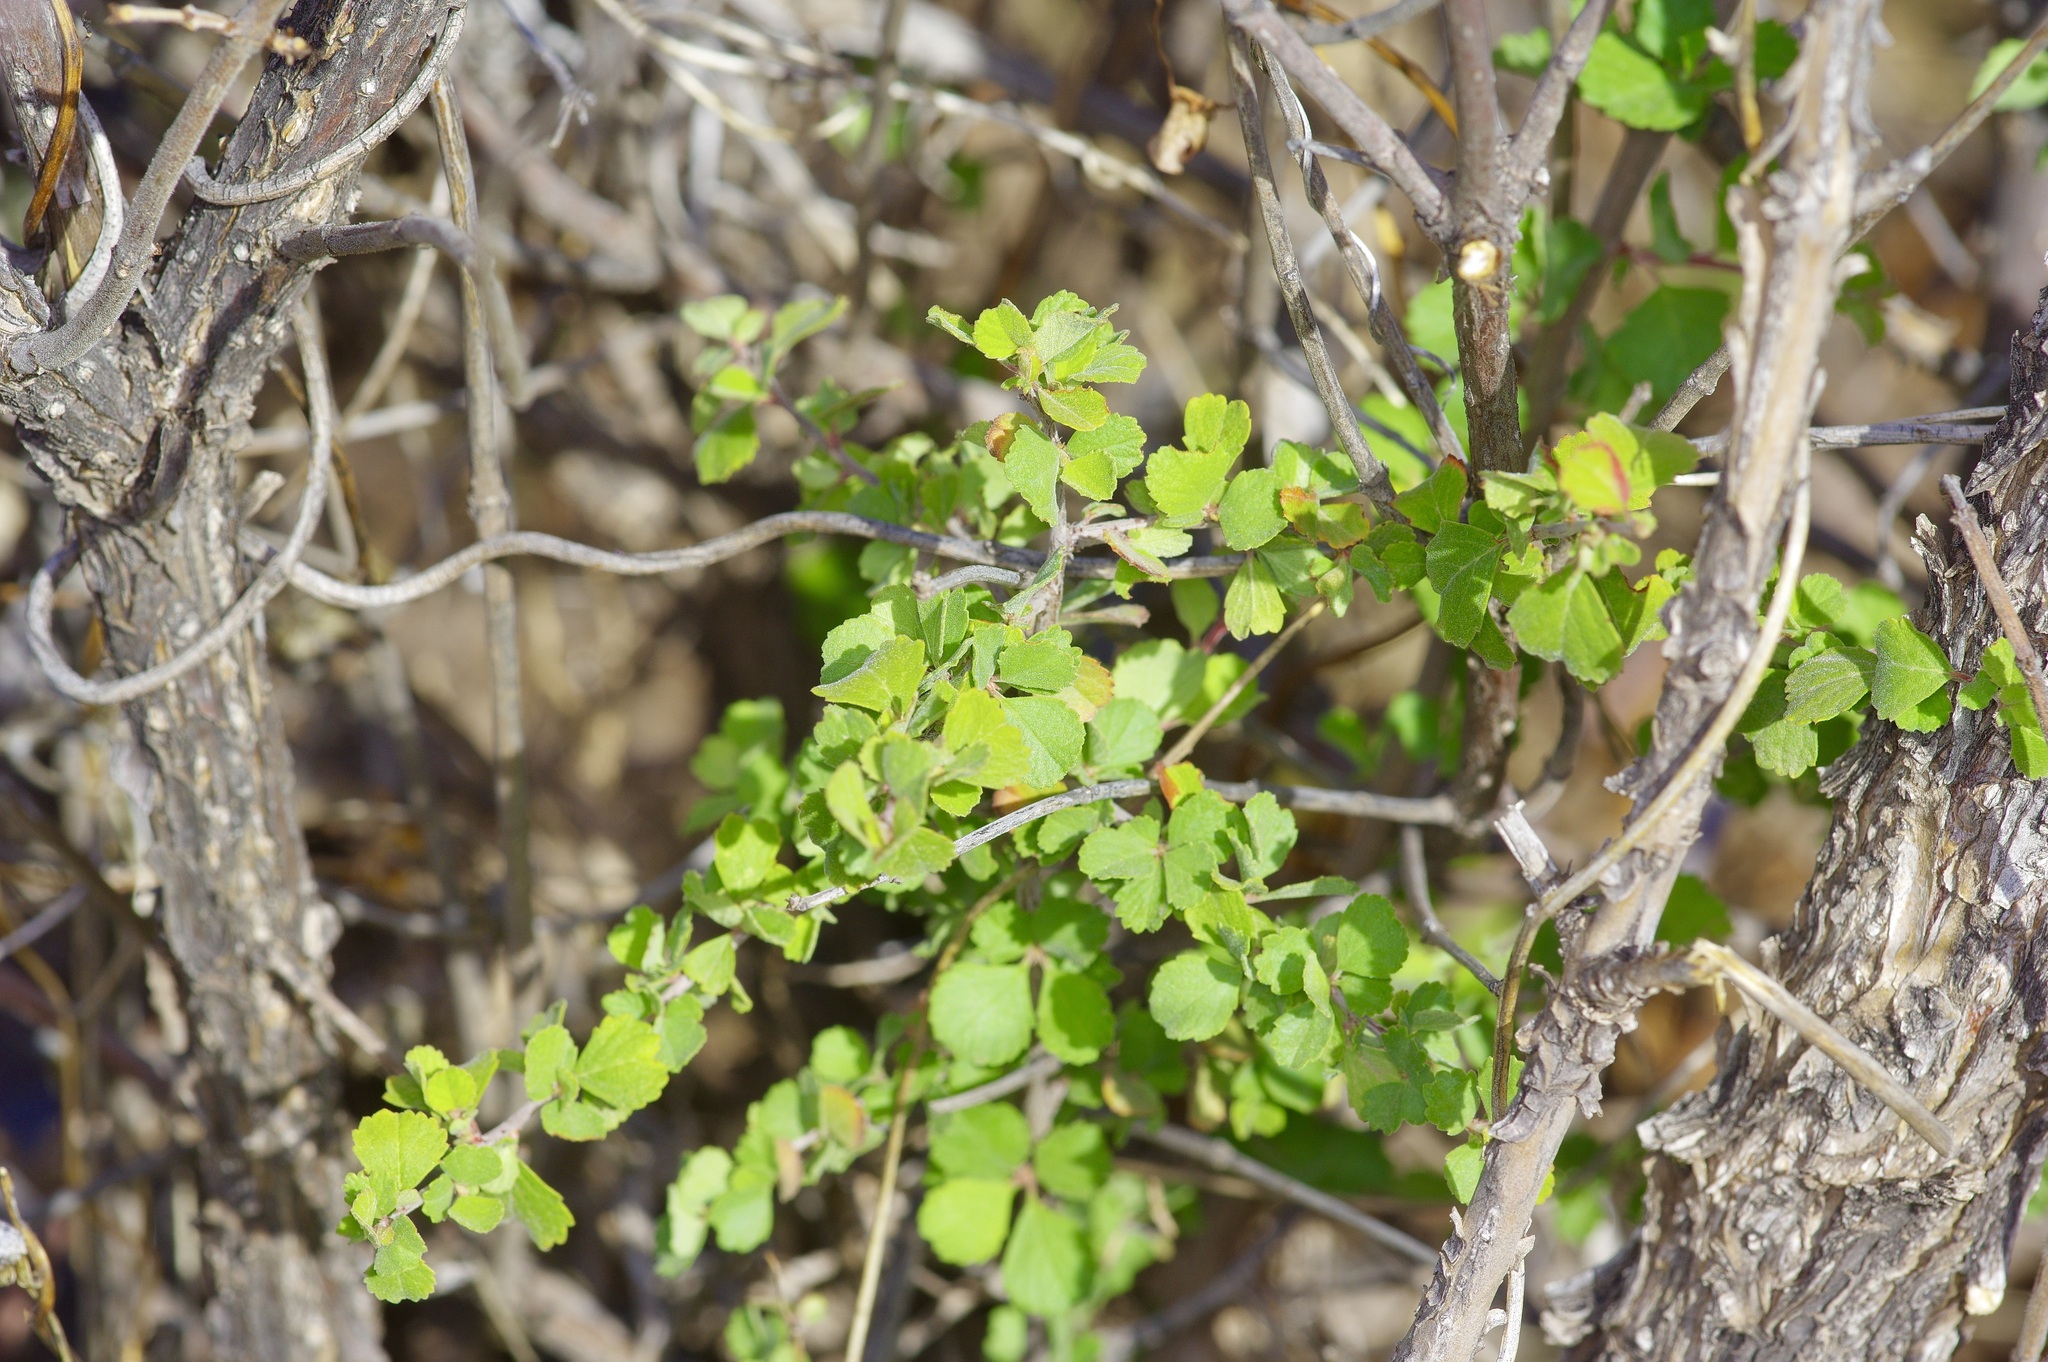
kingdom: Plantae
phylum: Tracheophyta
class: Magnoliopsida
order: Rosales
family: Rosaceae
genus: Prunus
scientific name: Prunus havardii
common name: Havard plum
